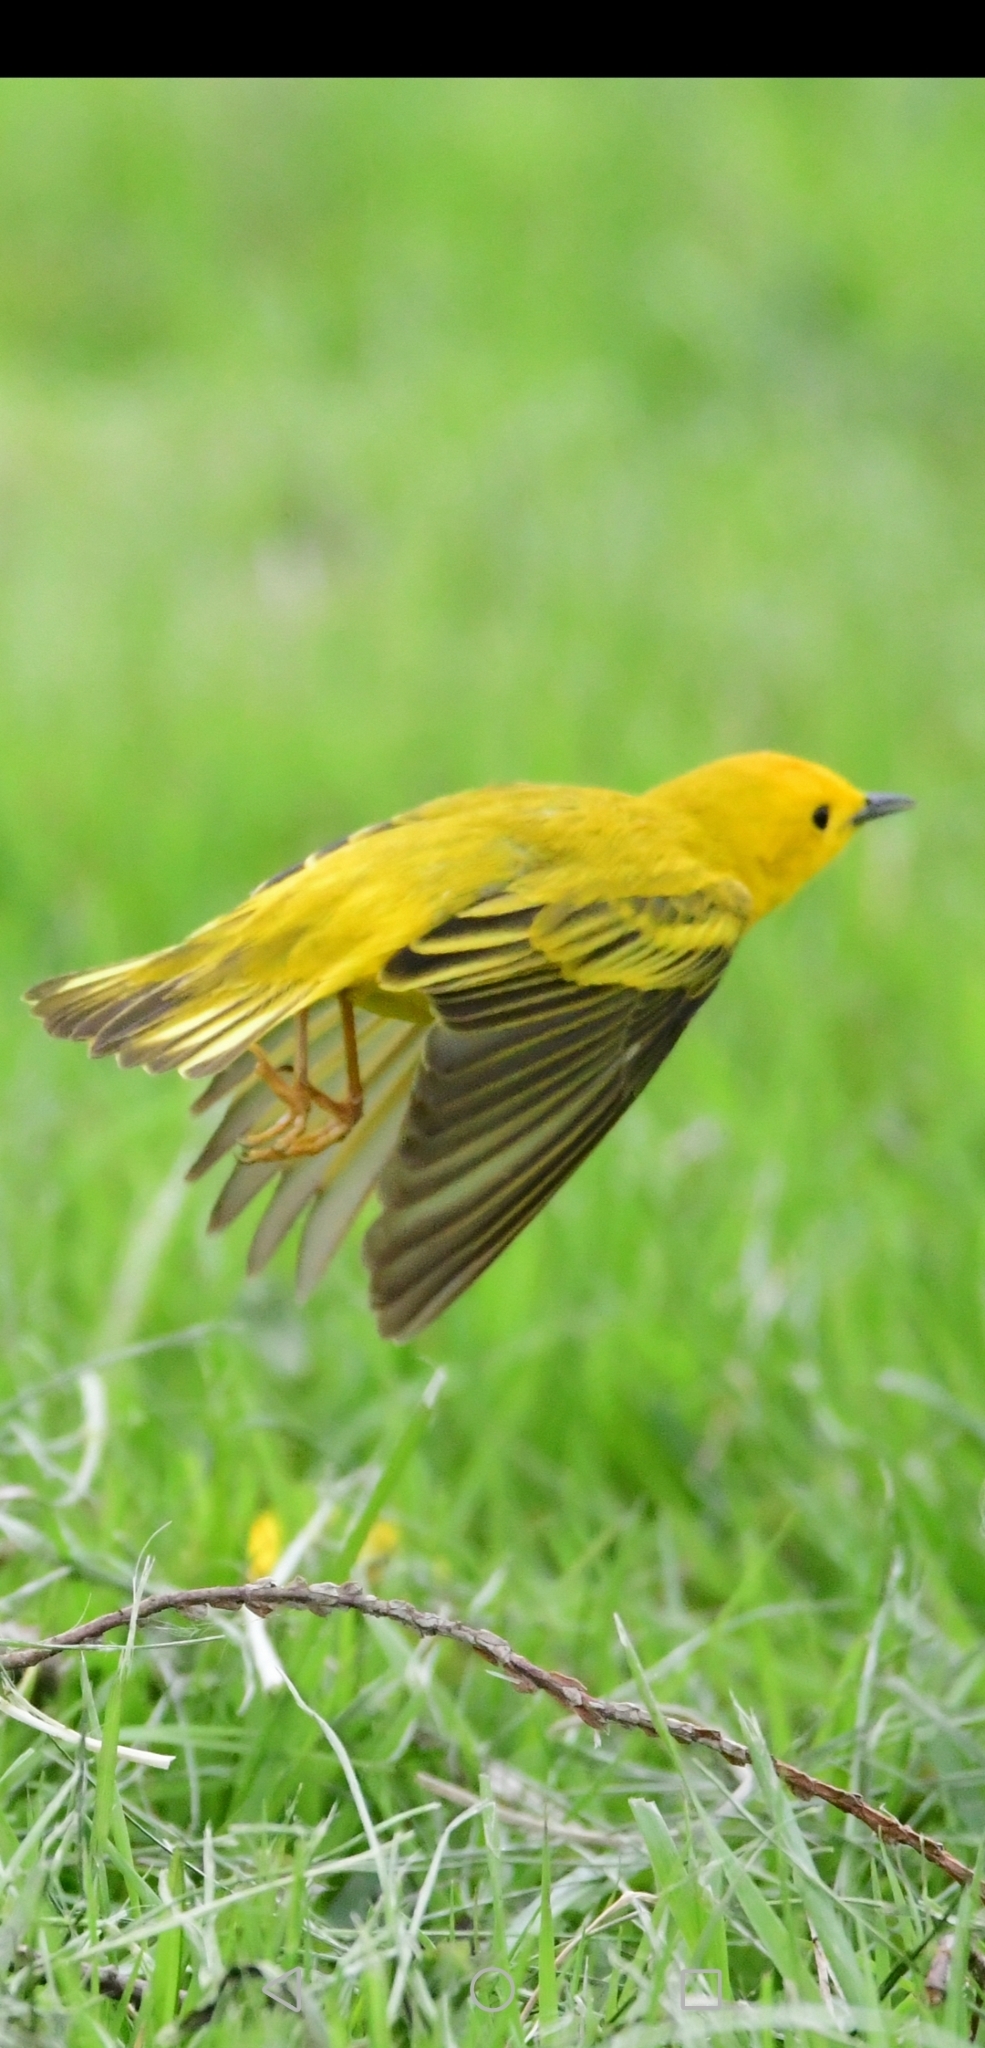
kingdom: Animalia
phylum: Chordata
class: Aves
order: Passeriformes
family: Parulidae
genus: Setophaga
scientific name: Setophaga petechia
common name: Yellow warbler
